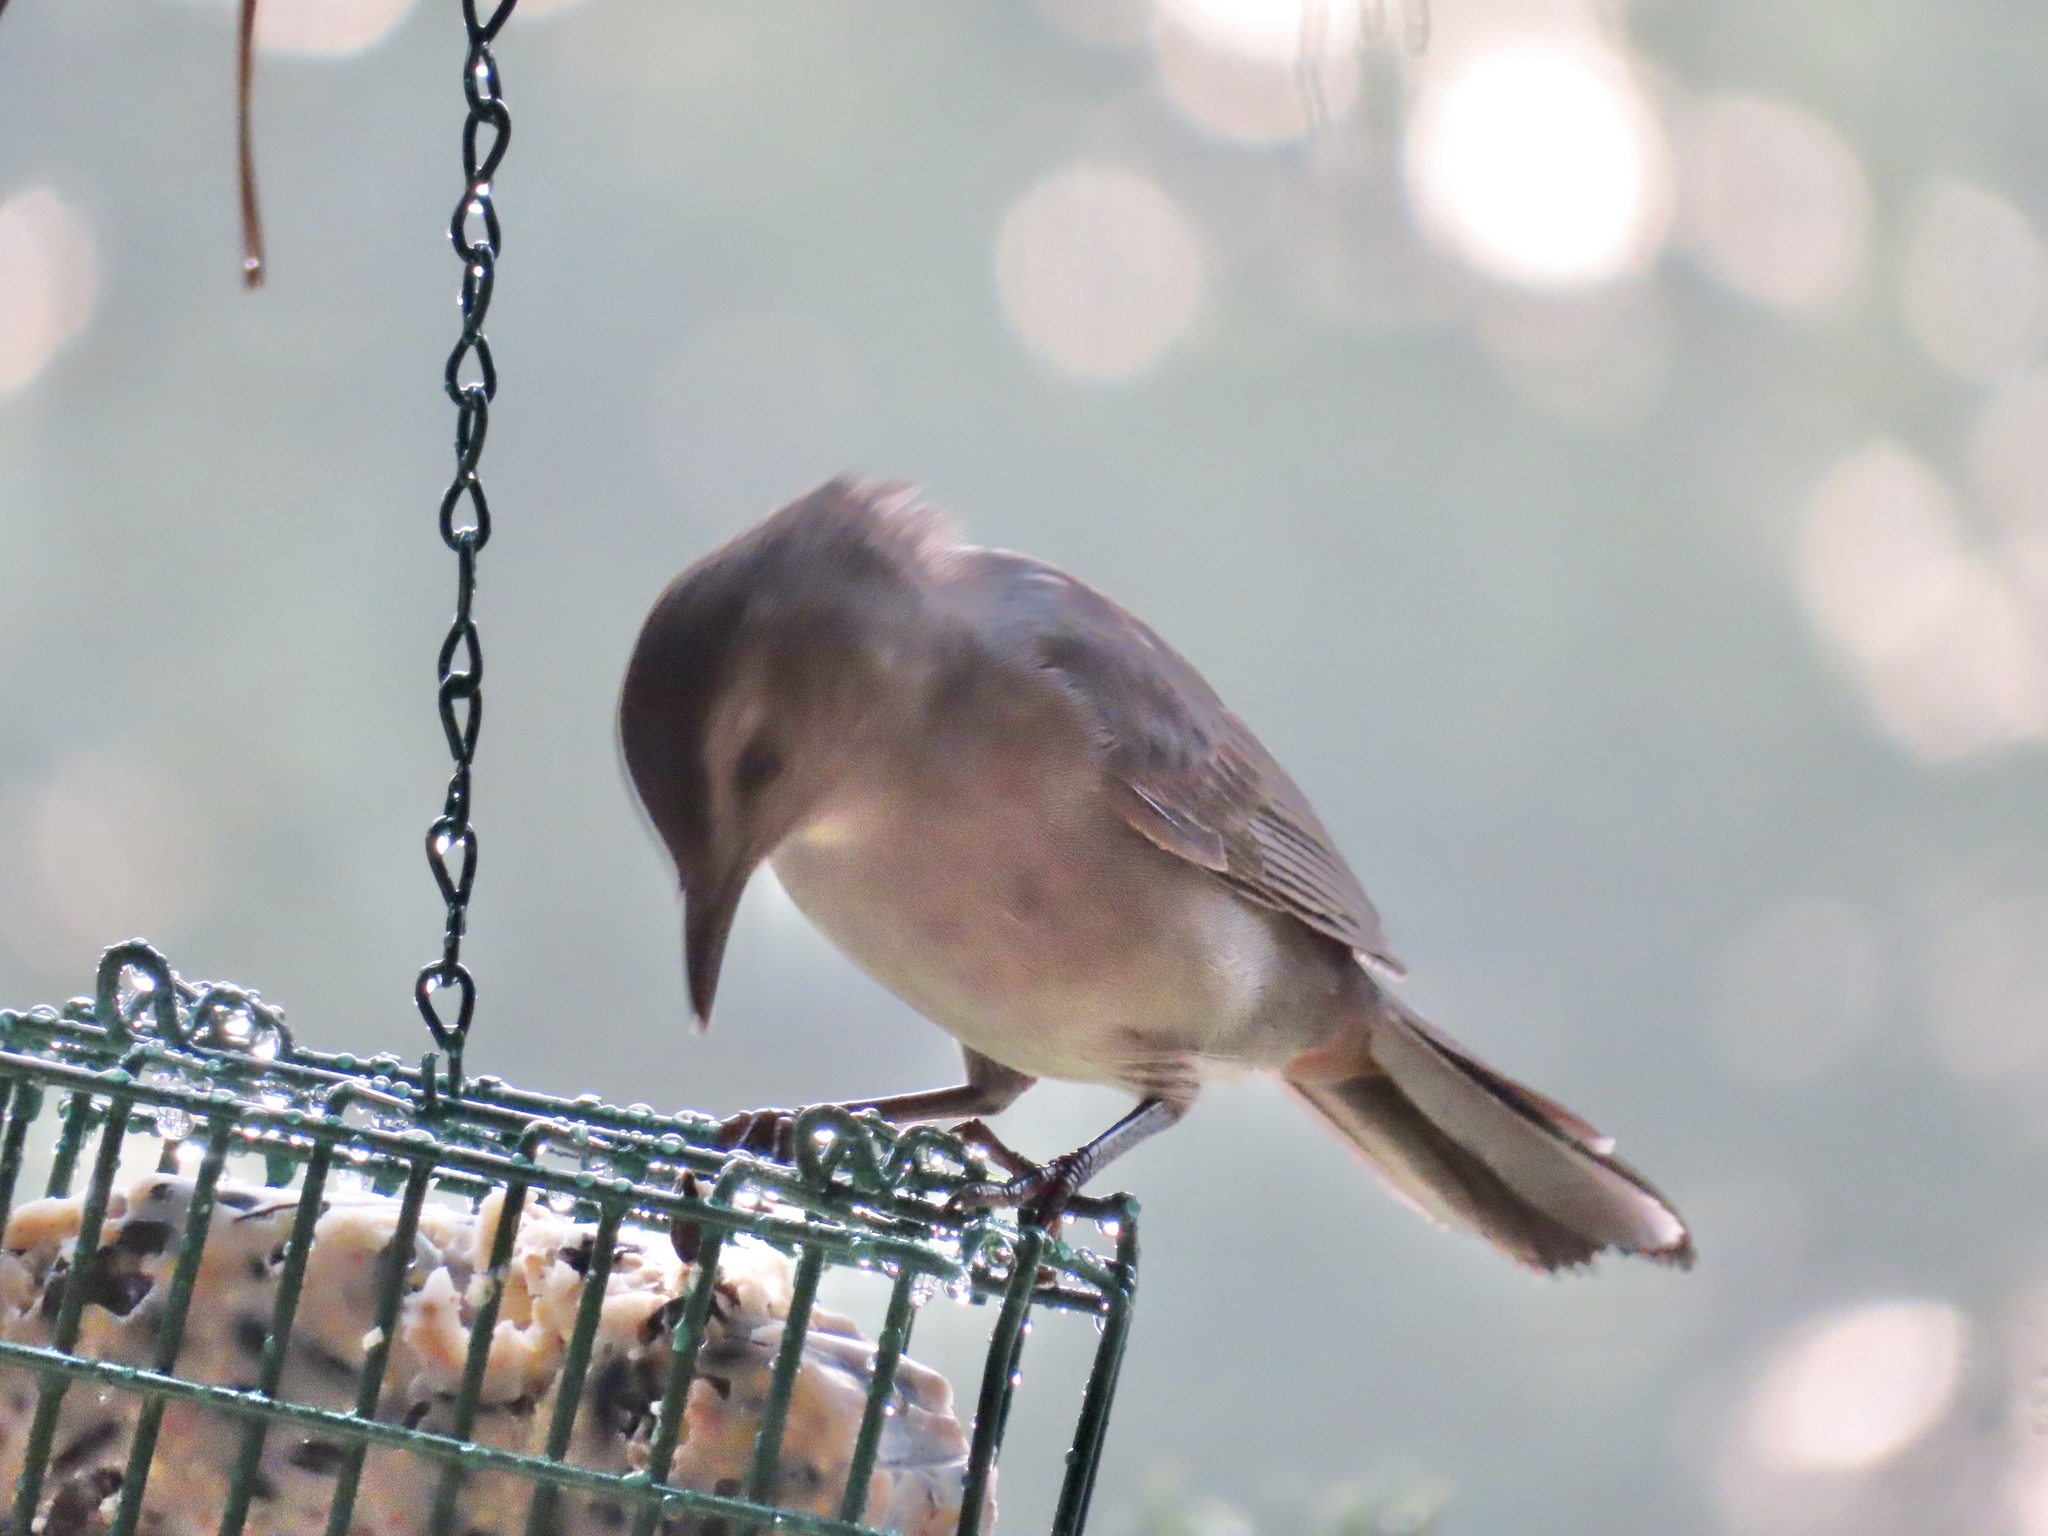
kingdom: Animalia
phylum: Chordata
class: Aves
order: Passeriformes
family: Mimidae
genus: Dumetella
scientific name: Dumetella carolinensis
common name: Gray catbird
